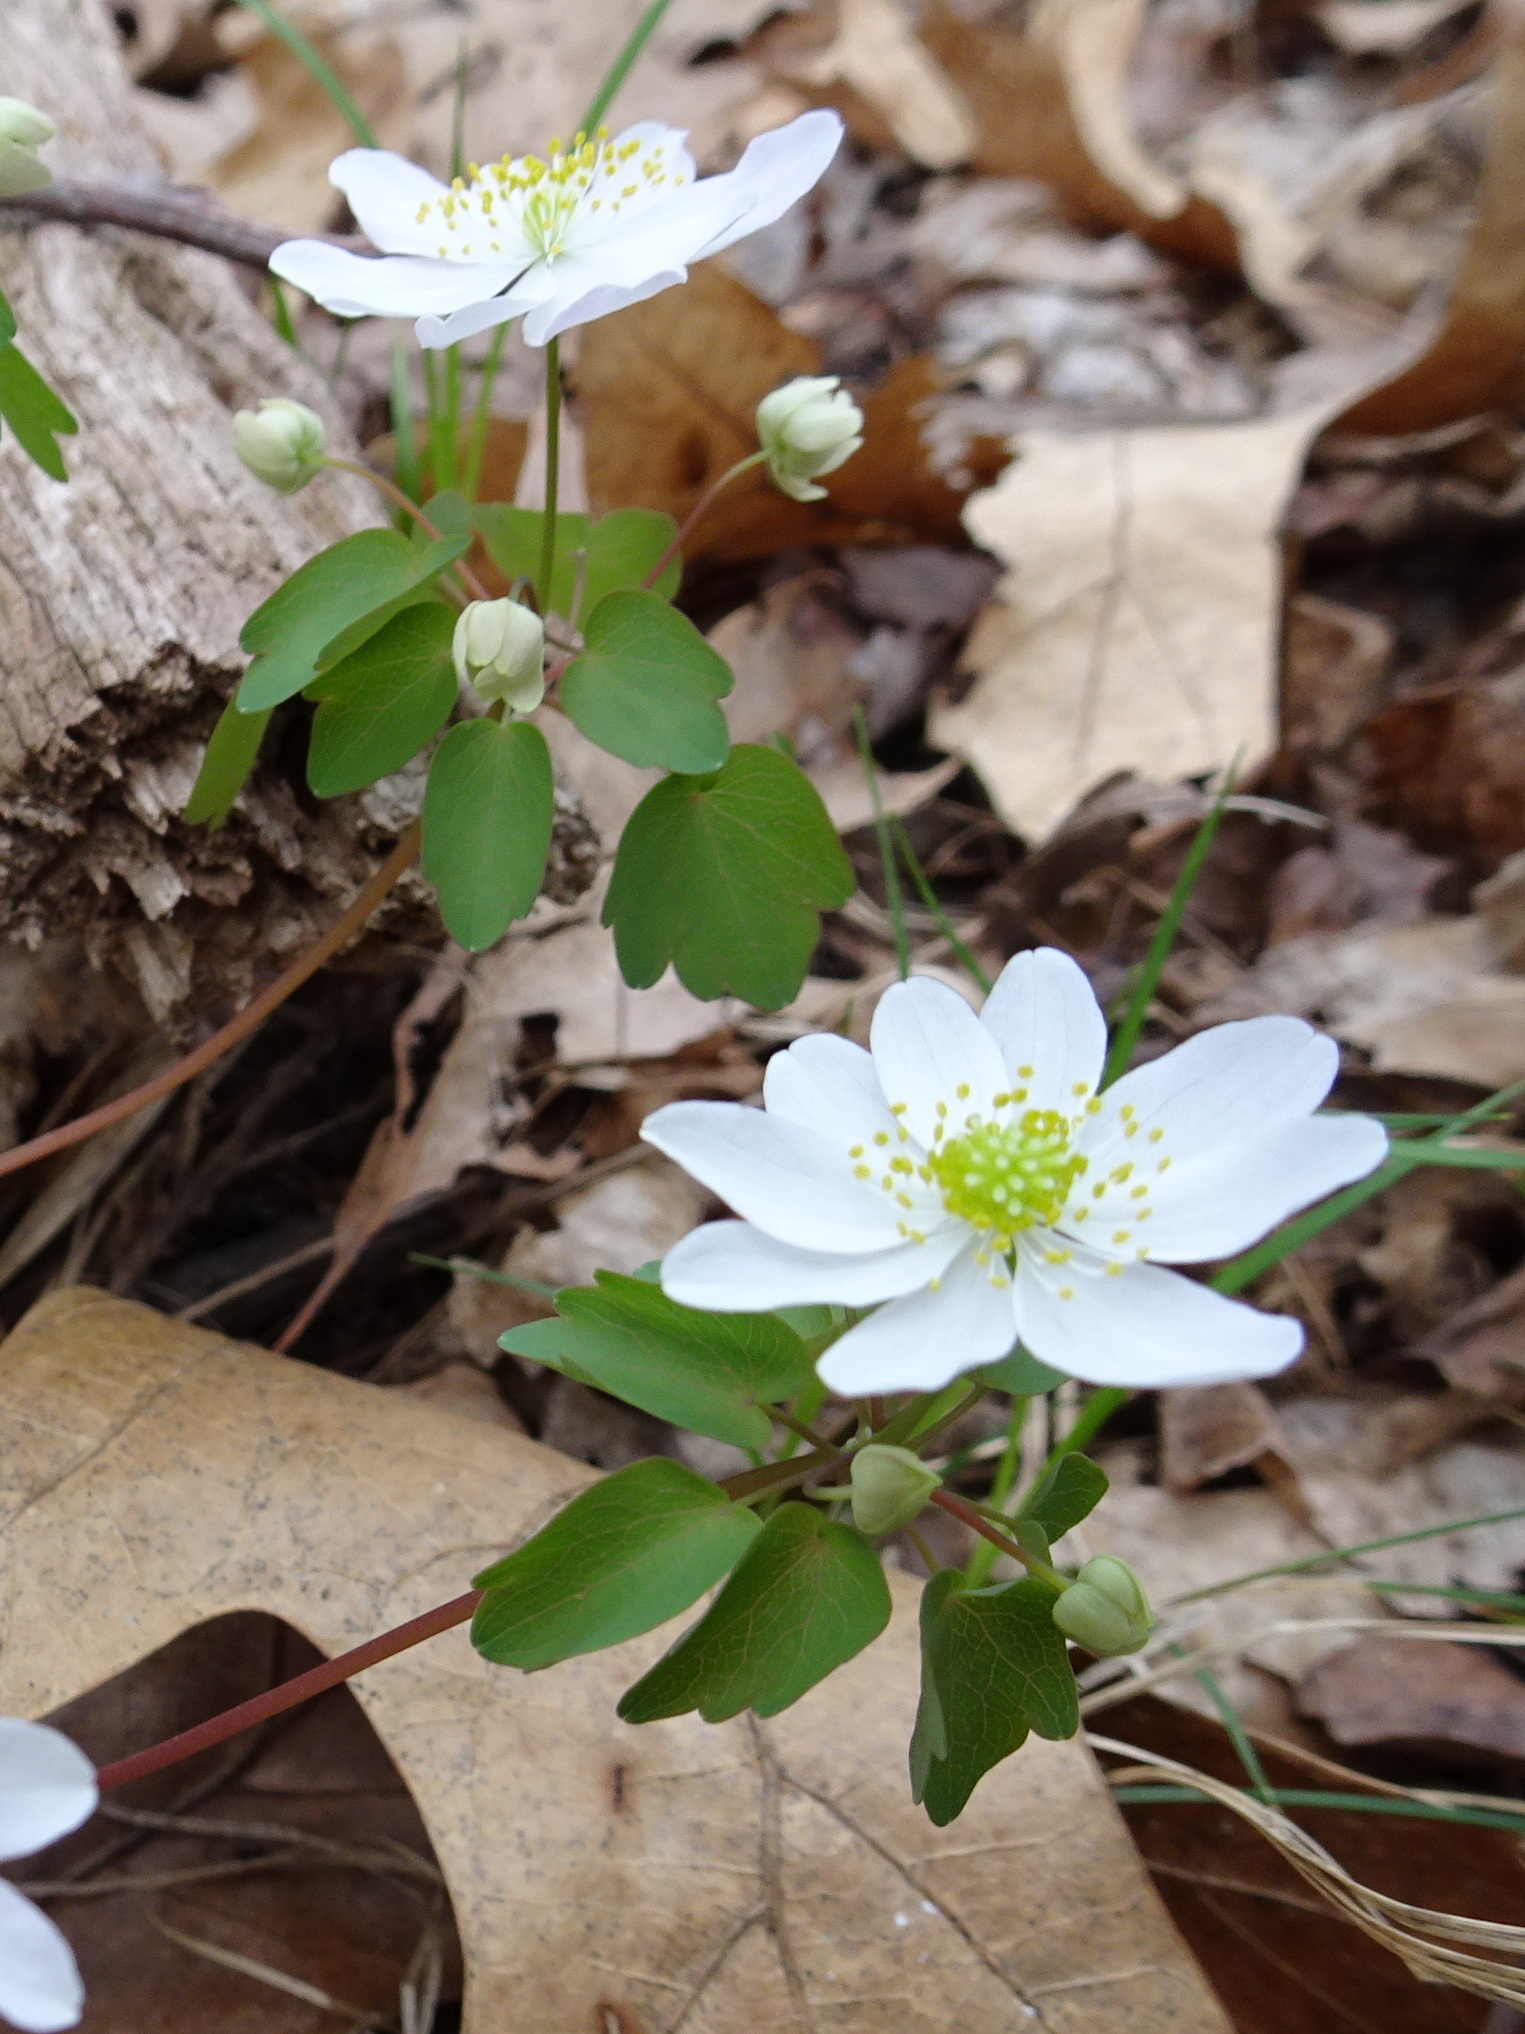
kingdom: Plantae
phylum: Tracheophyta
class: Magnoliopsida
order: Ranunculales
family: Ranunculaceae
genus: Thalictrum
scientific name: Thalictrum thalictroides
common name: Rue-anemone
